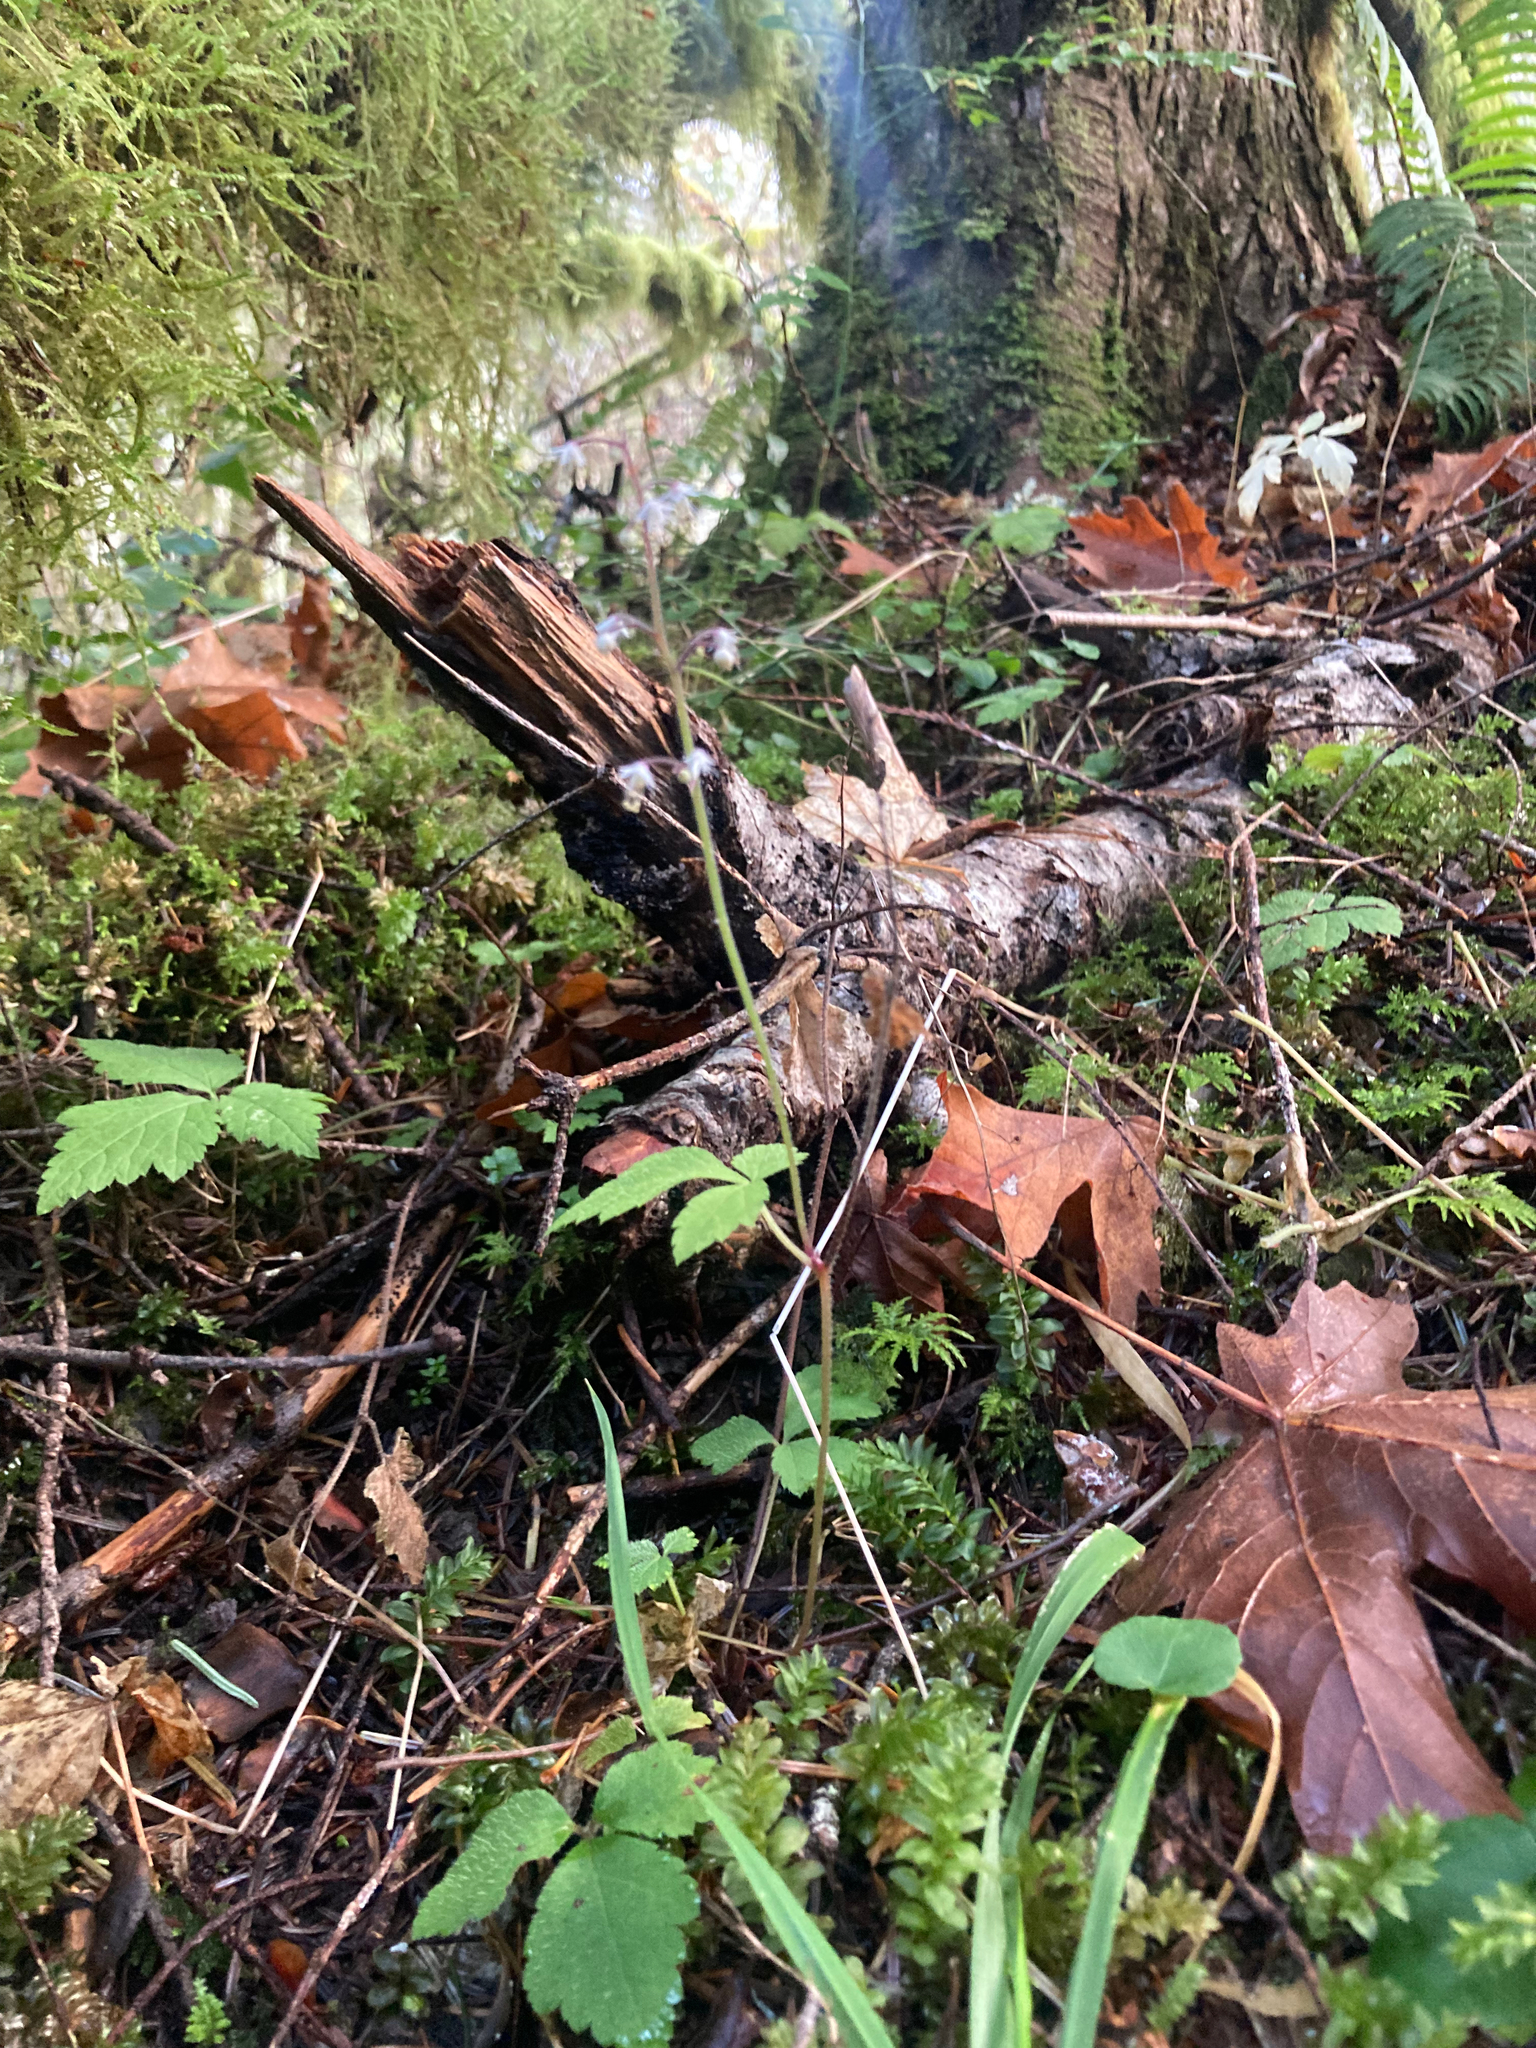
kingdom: Plantae
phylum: Tracheophyta
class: Magnoliopsida
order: Saxifragales
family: Saxifragaceae
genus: Tiarella
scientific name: Tiarella trifoliata
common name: Sugar-scoop
